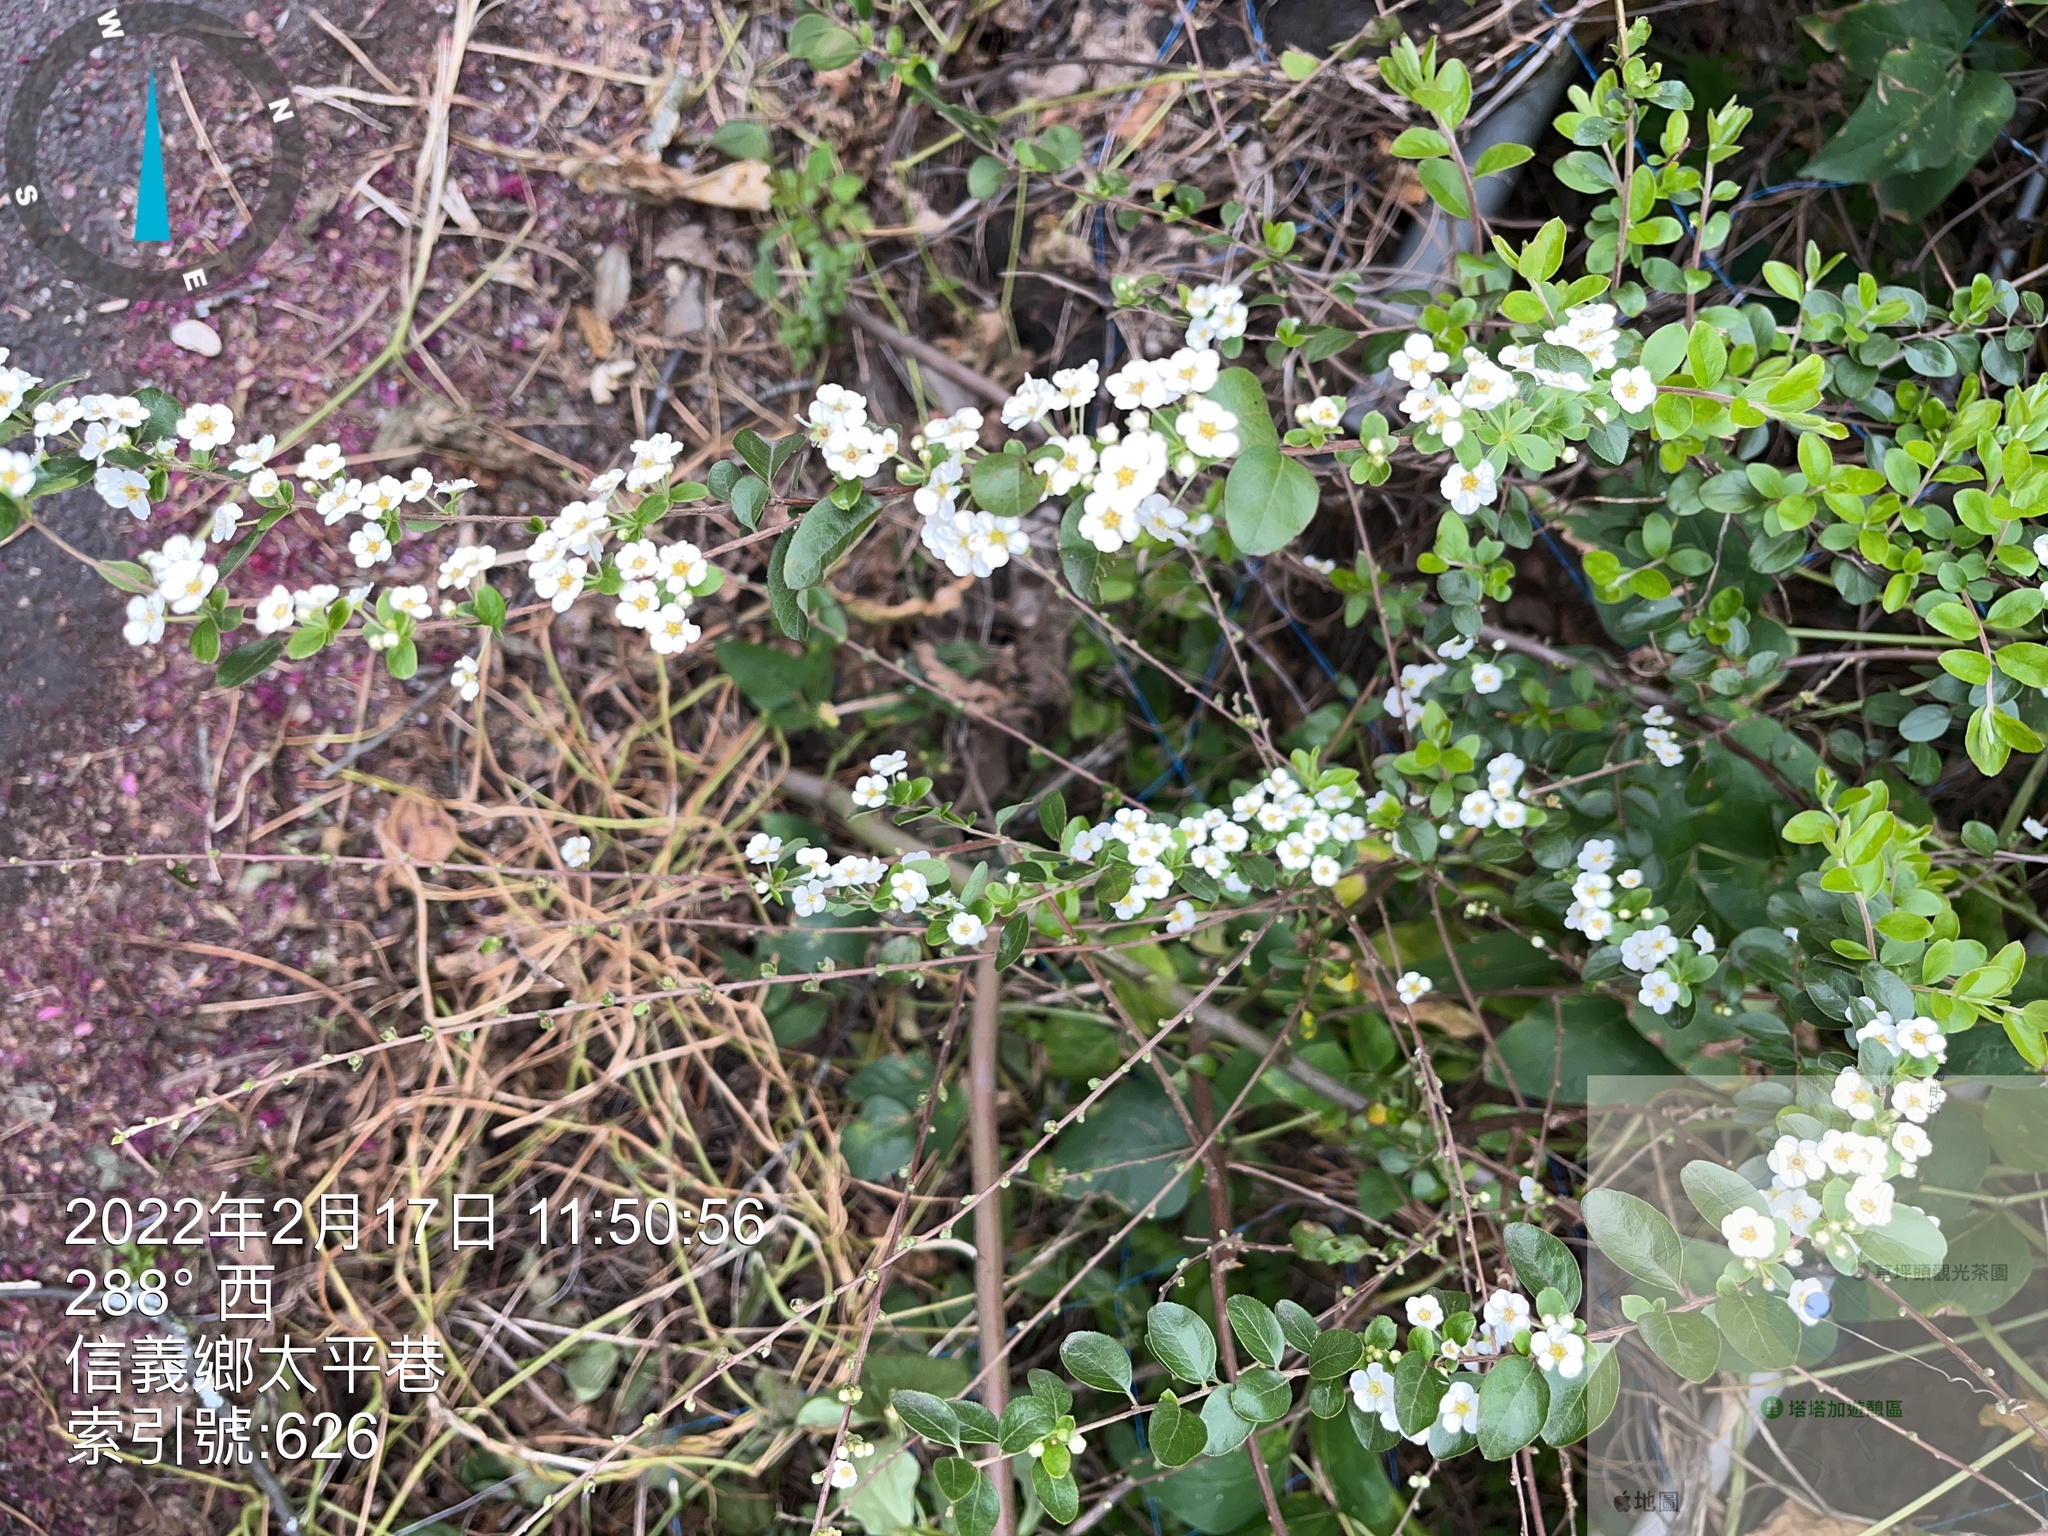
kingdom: Plantae
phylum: Tracheophyta
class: Magnoliopsida
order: Rosales
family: Rosaceae
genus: Spiraea
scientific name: Spiraea prunifolia
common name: Bridal-wreath spiraea
